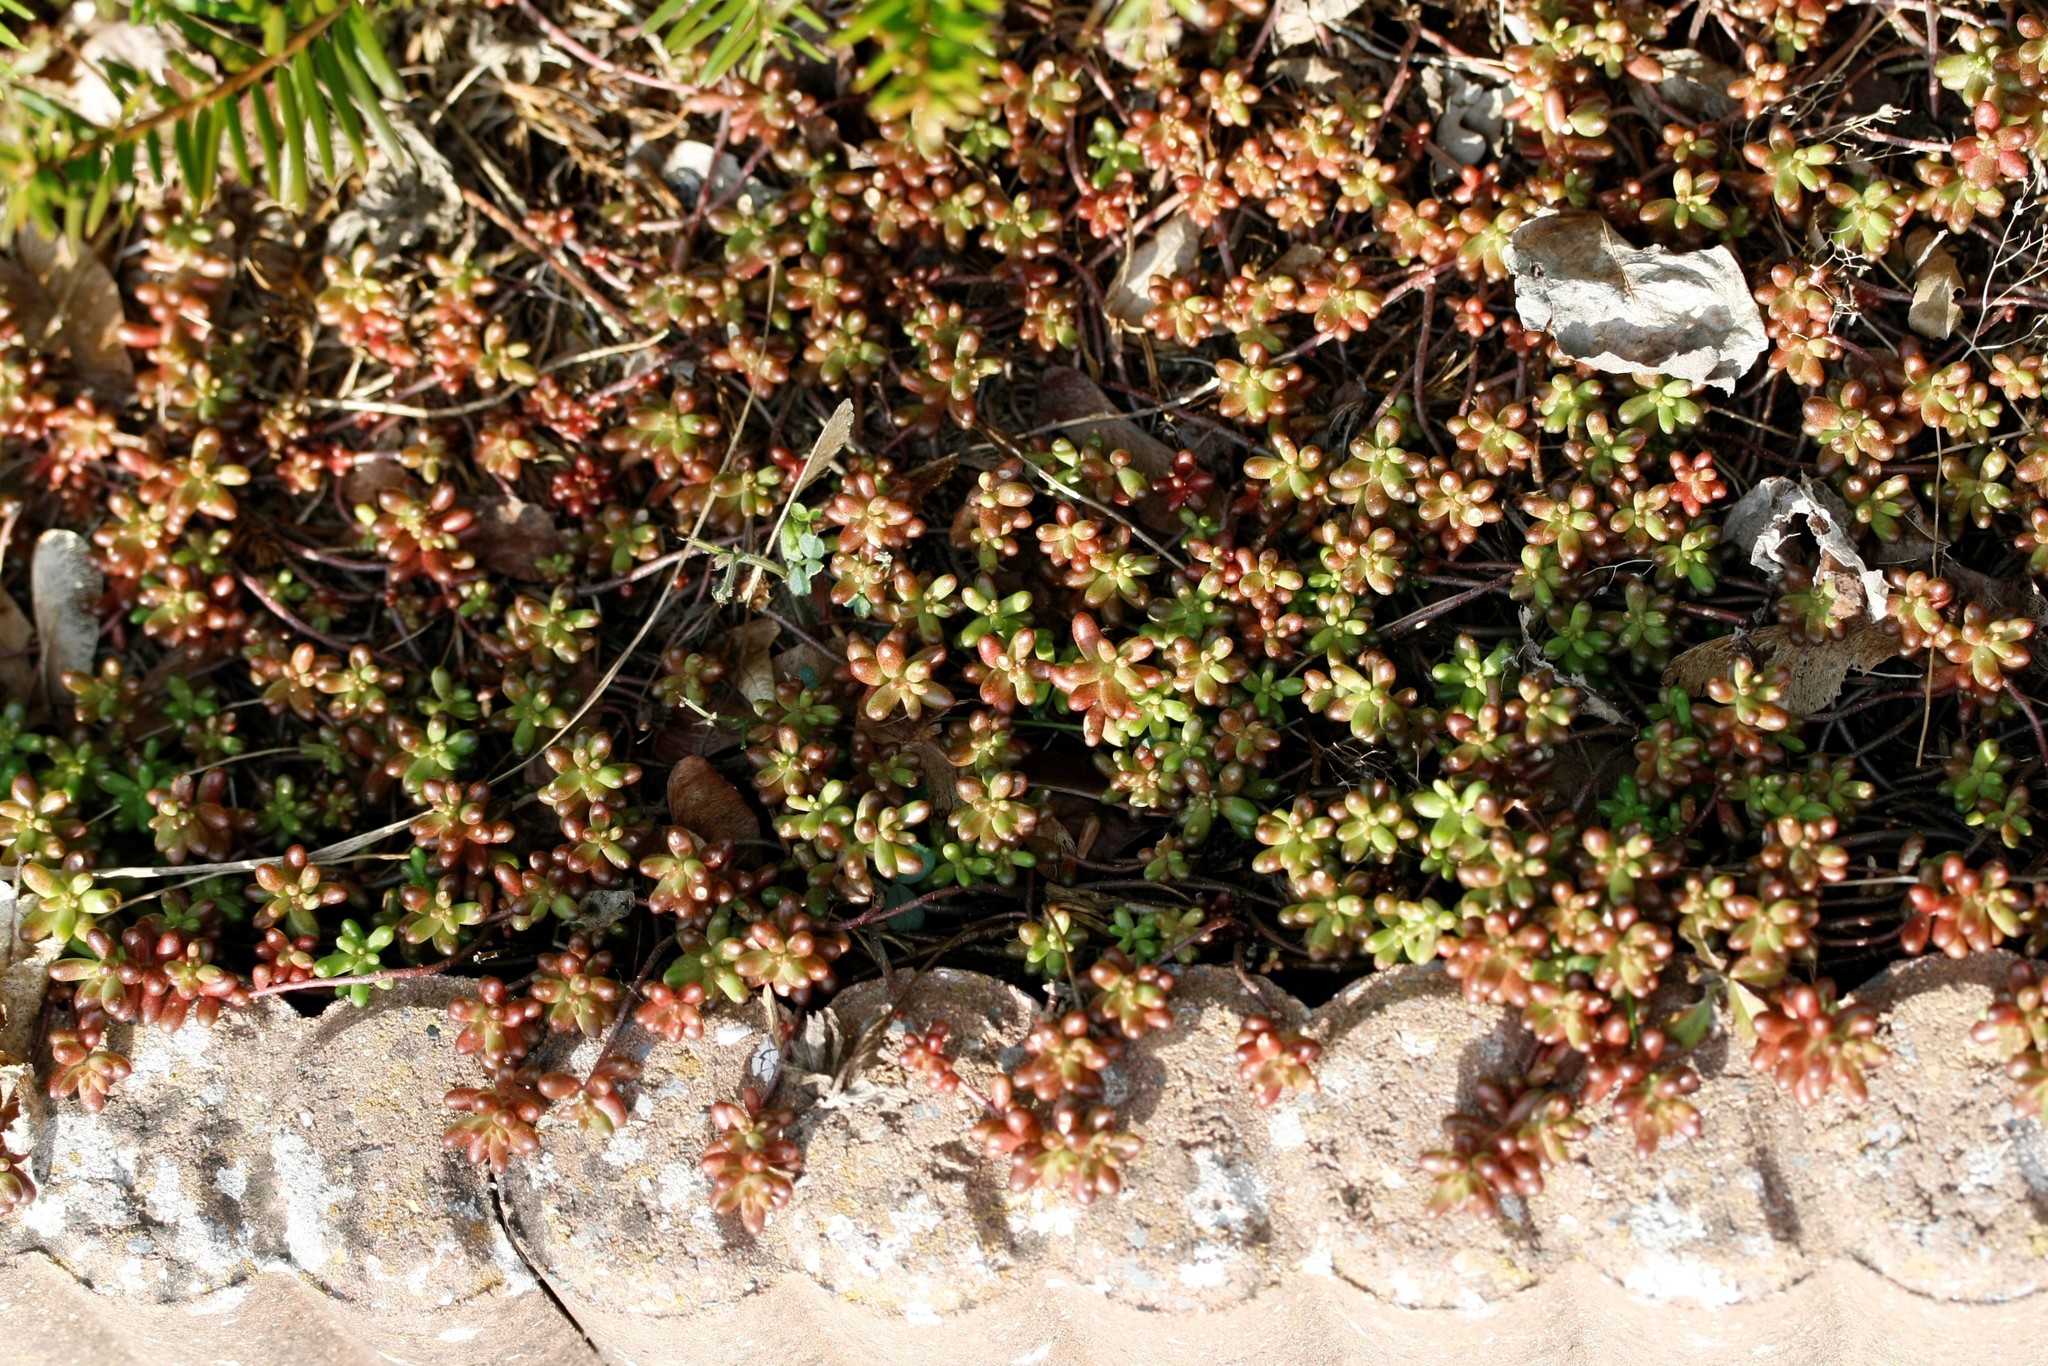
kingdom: Plantae
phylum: Tracheophyta
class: Magnoliopsida
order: Saxifragales
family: Crassulaceae
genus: Sedum
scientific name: Sedum album
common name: White stonecrop
